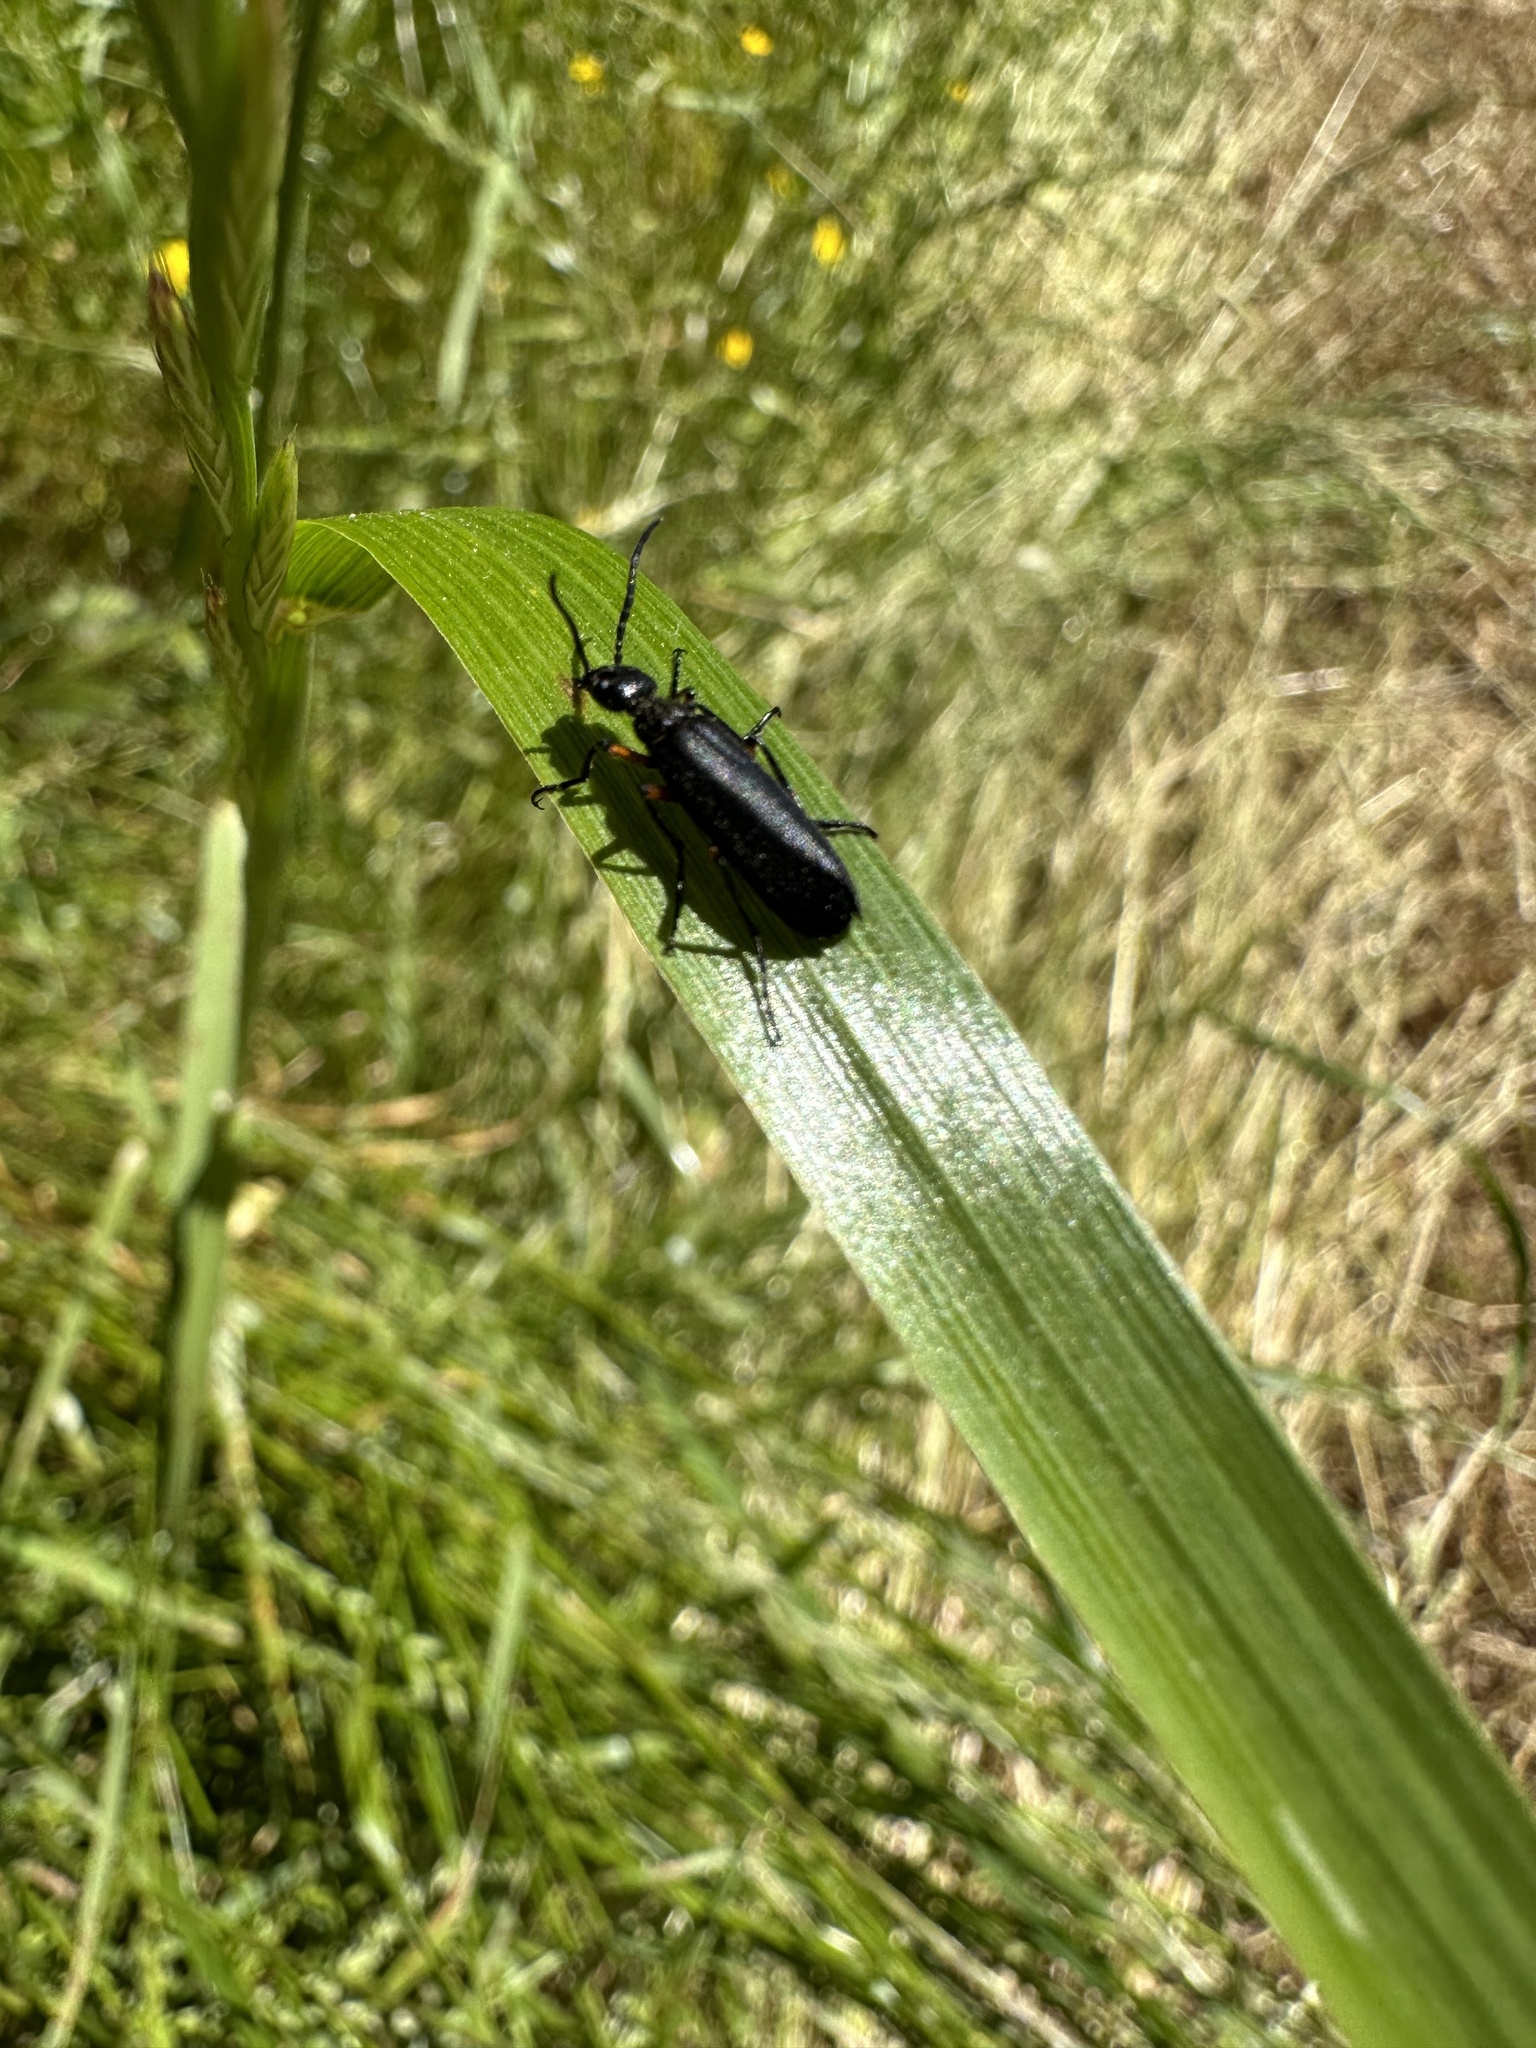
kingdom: Animalia
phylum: Arthropoda
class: Insecta
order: Coleoptera
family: Meloidae
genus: Epicauta
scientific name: Epicauta
